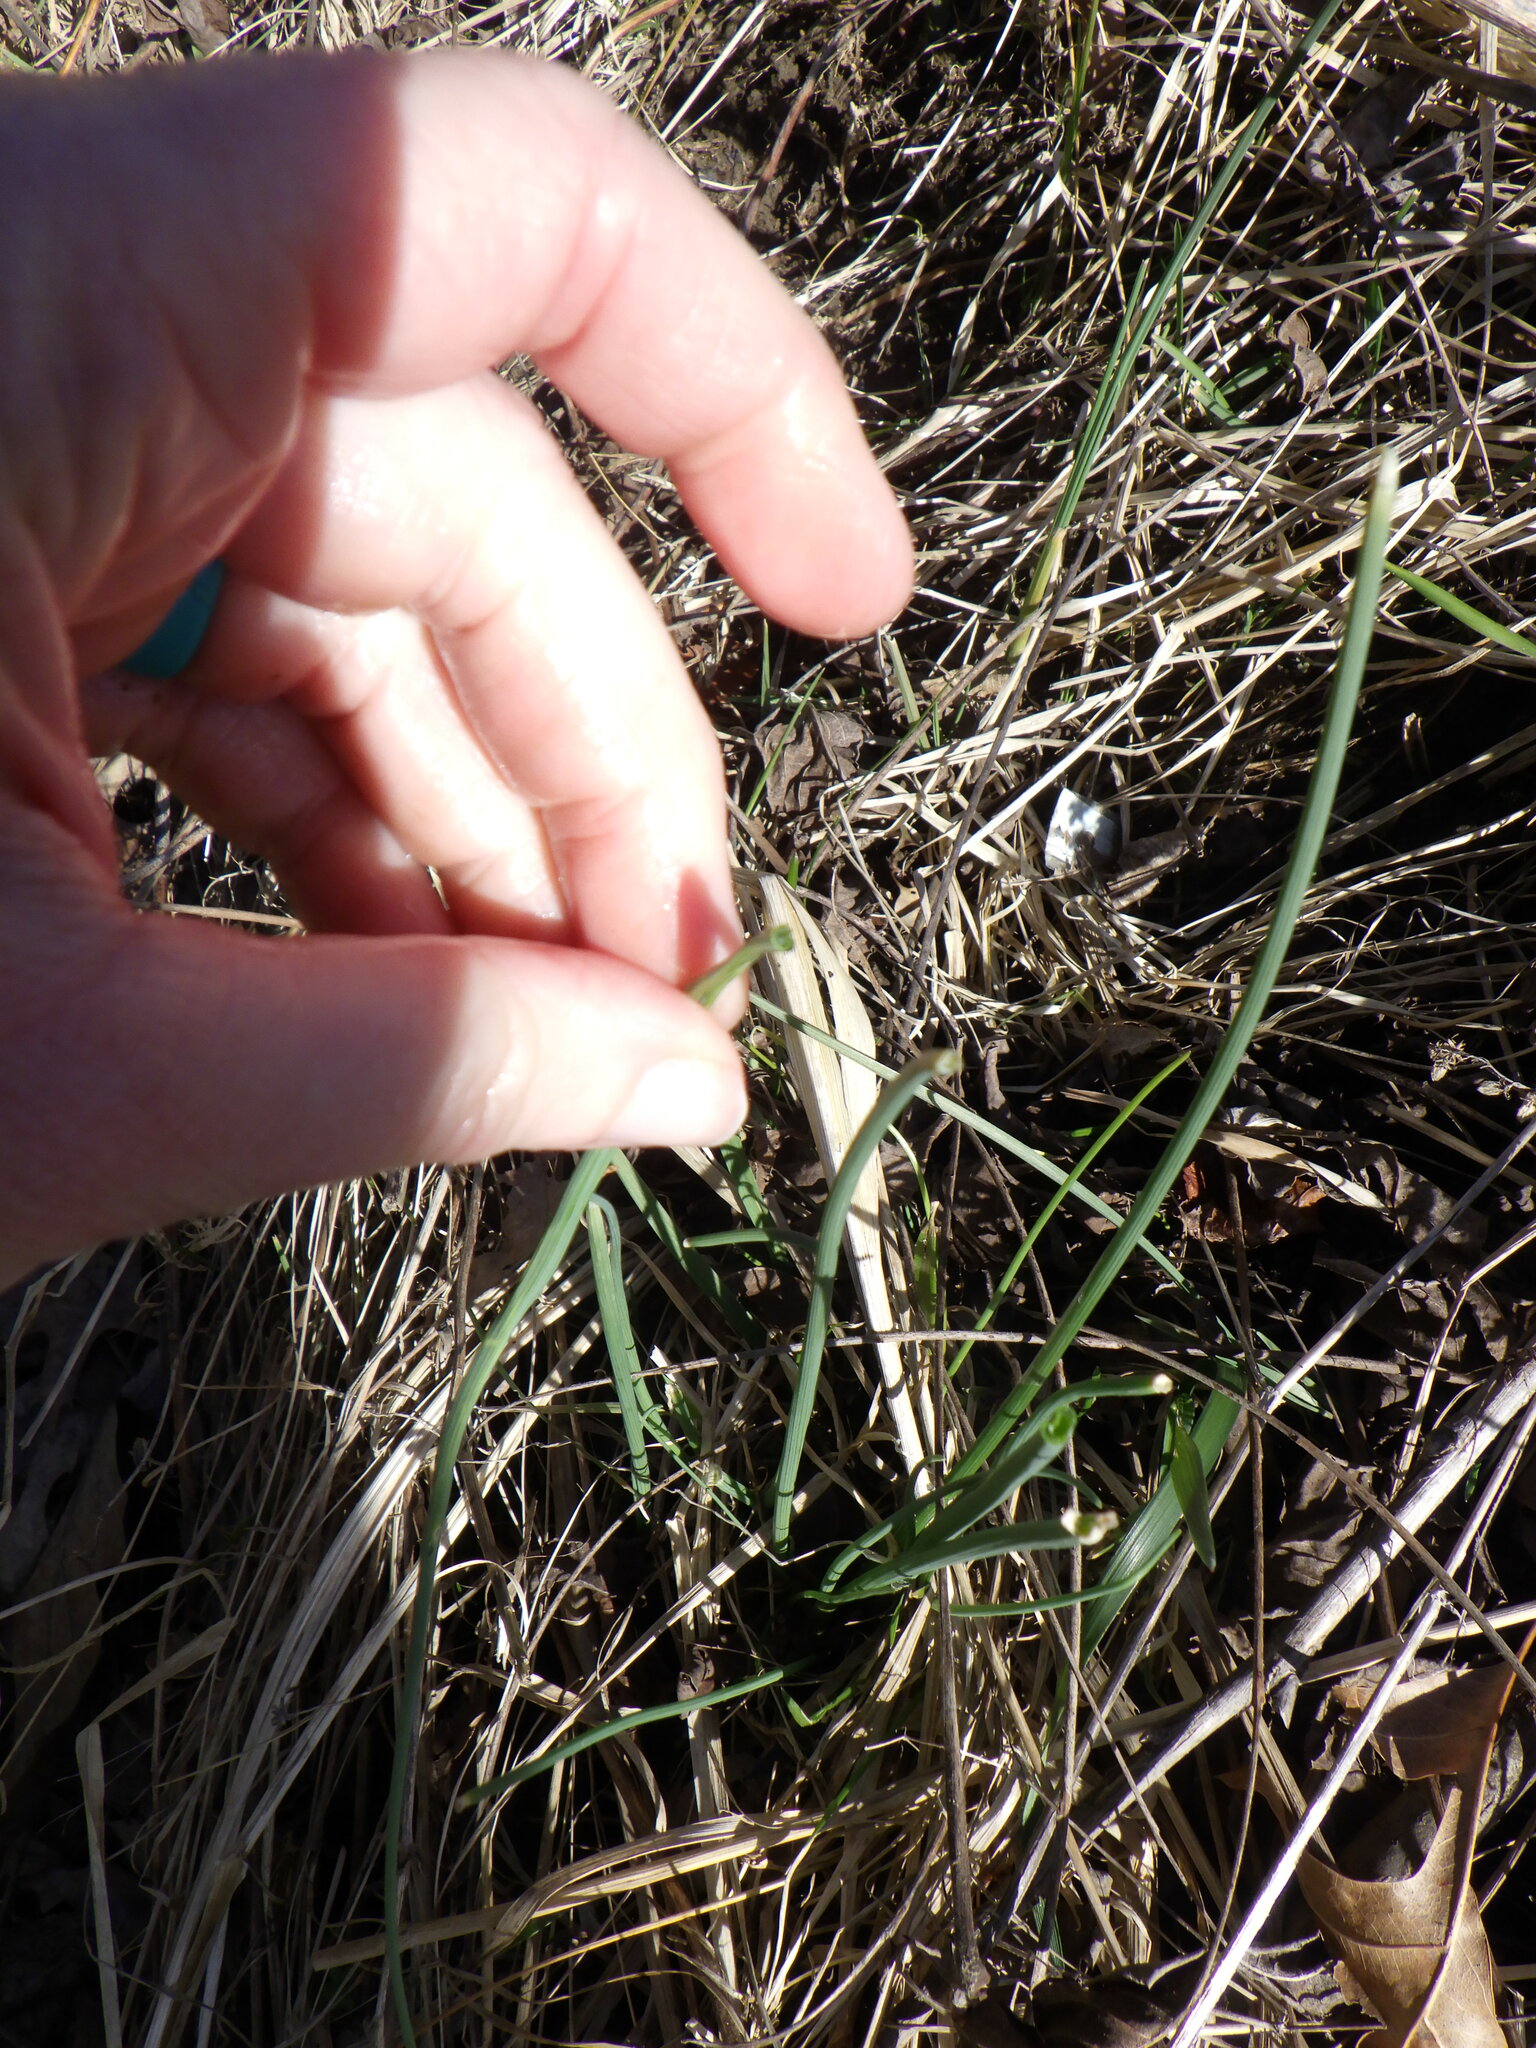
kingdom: Plantae
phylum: Tracheophyta
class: Liliopsida
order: Asparagales
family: Amaryllidaceae
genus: Allium
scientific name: Allium vineale
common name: Crow garlic
